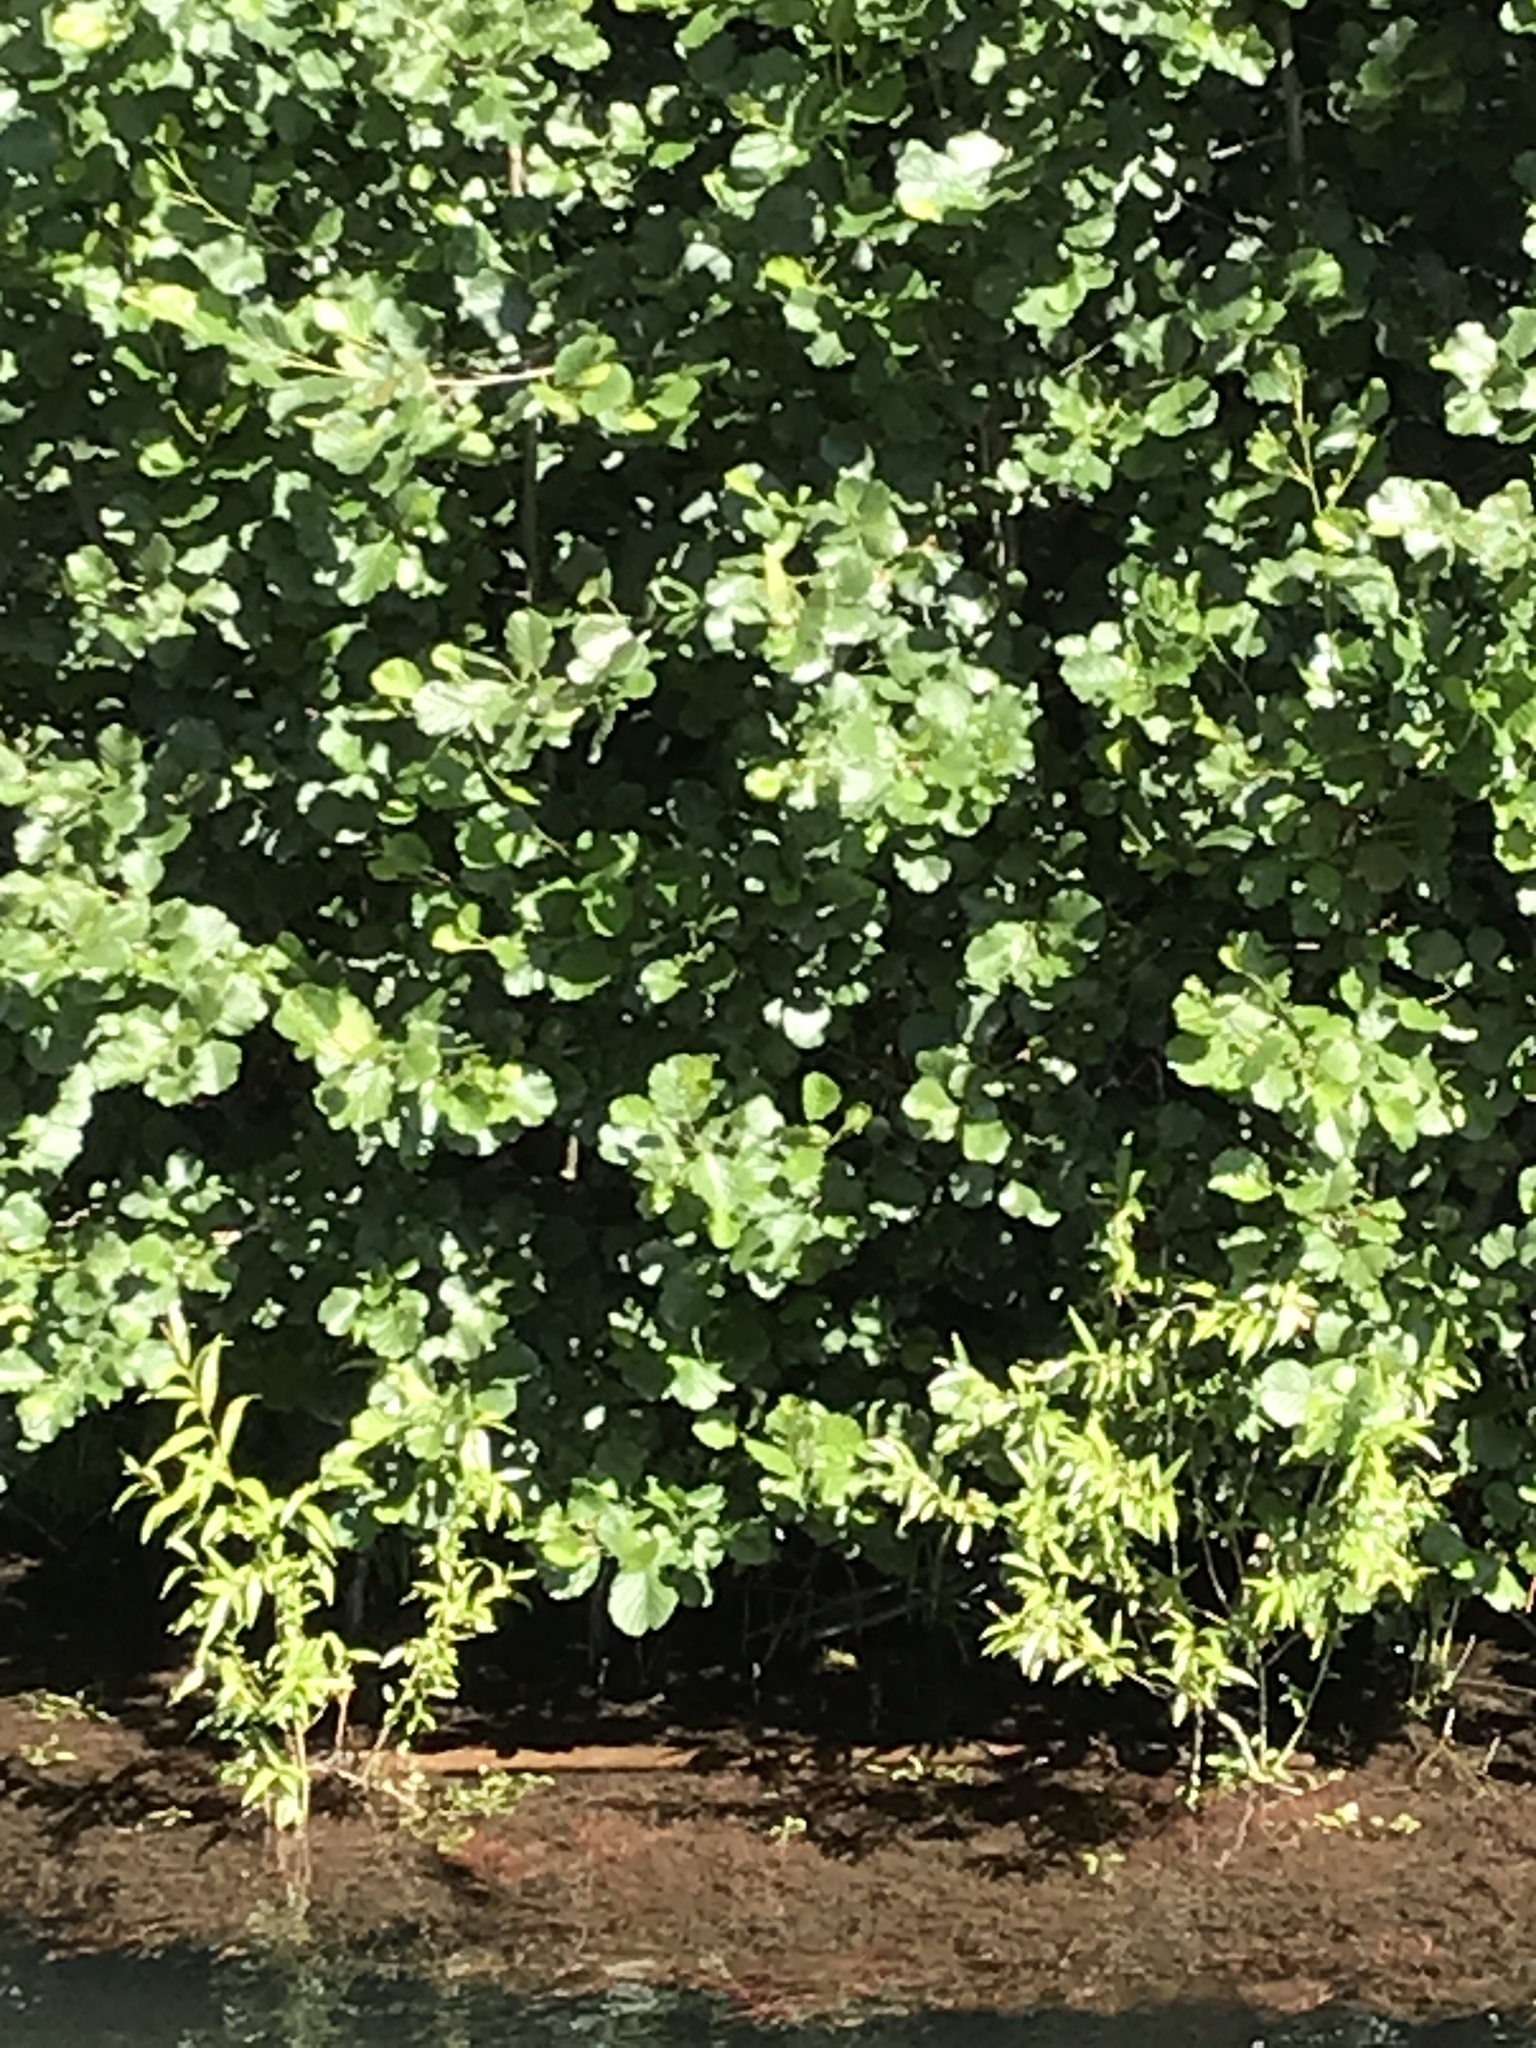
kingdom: Plantae
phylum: Tracheophyta
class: Magnoliopsida
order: Fagales
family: Betulaceae
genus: Alnus
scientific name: Alnus glutinosa
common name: Black alder
